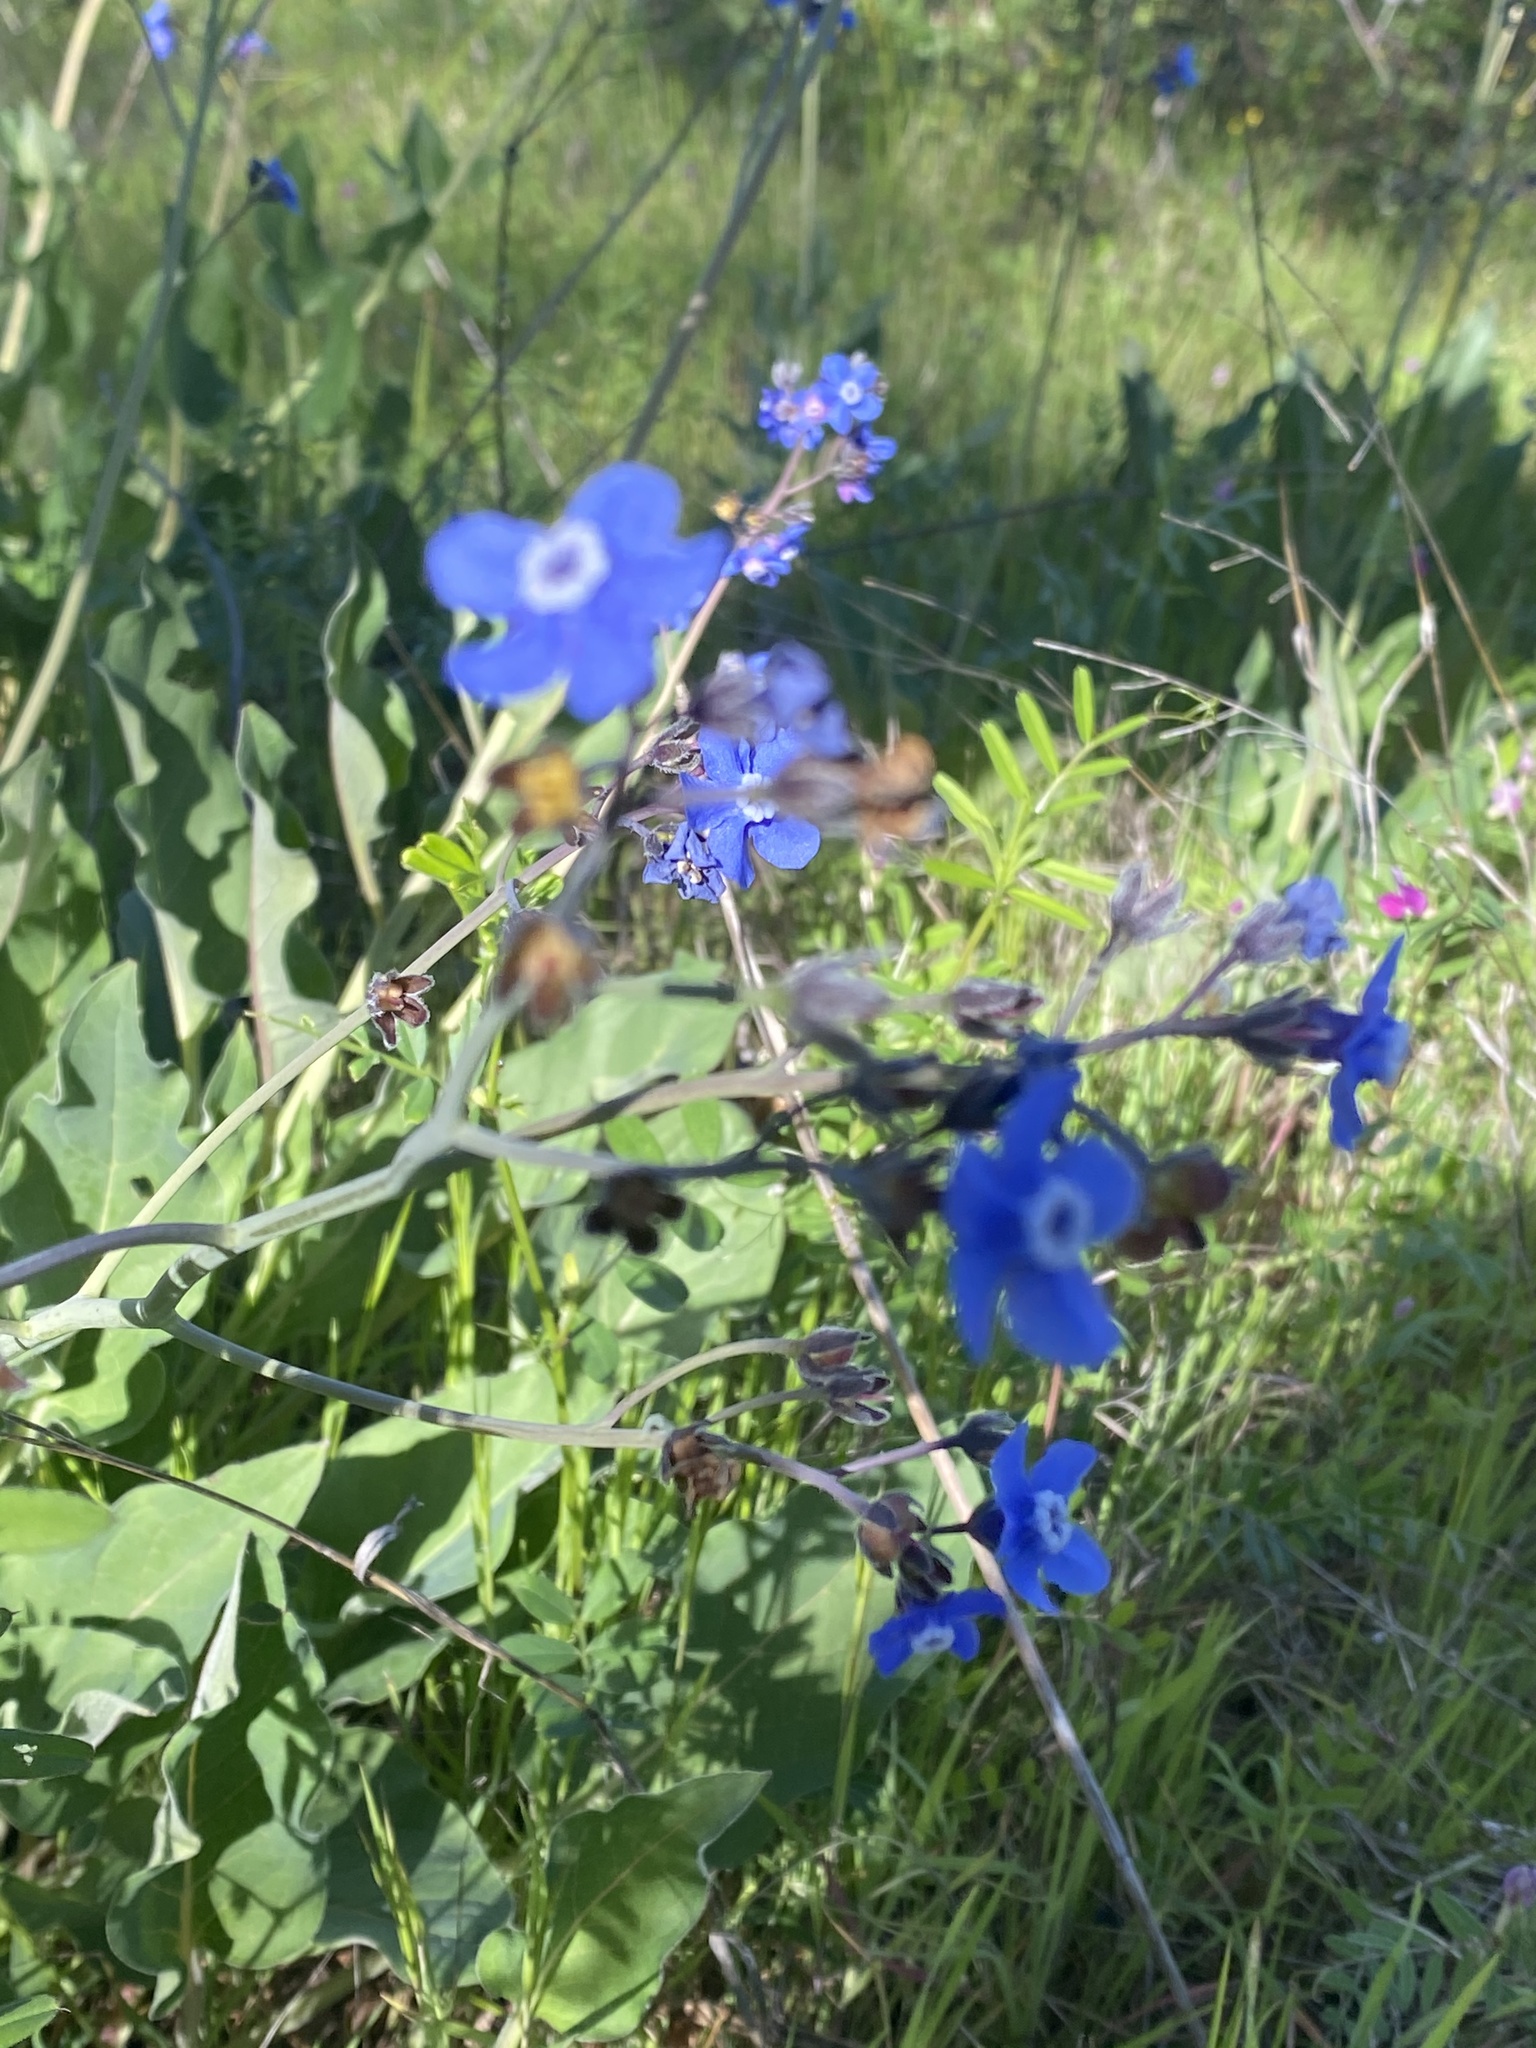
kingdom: Plantae
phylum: Tracheophyta
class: Magnoliopsida
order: Boraginales
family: Boraginaceae
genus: Adelinia
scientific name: Adelinia grande
